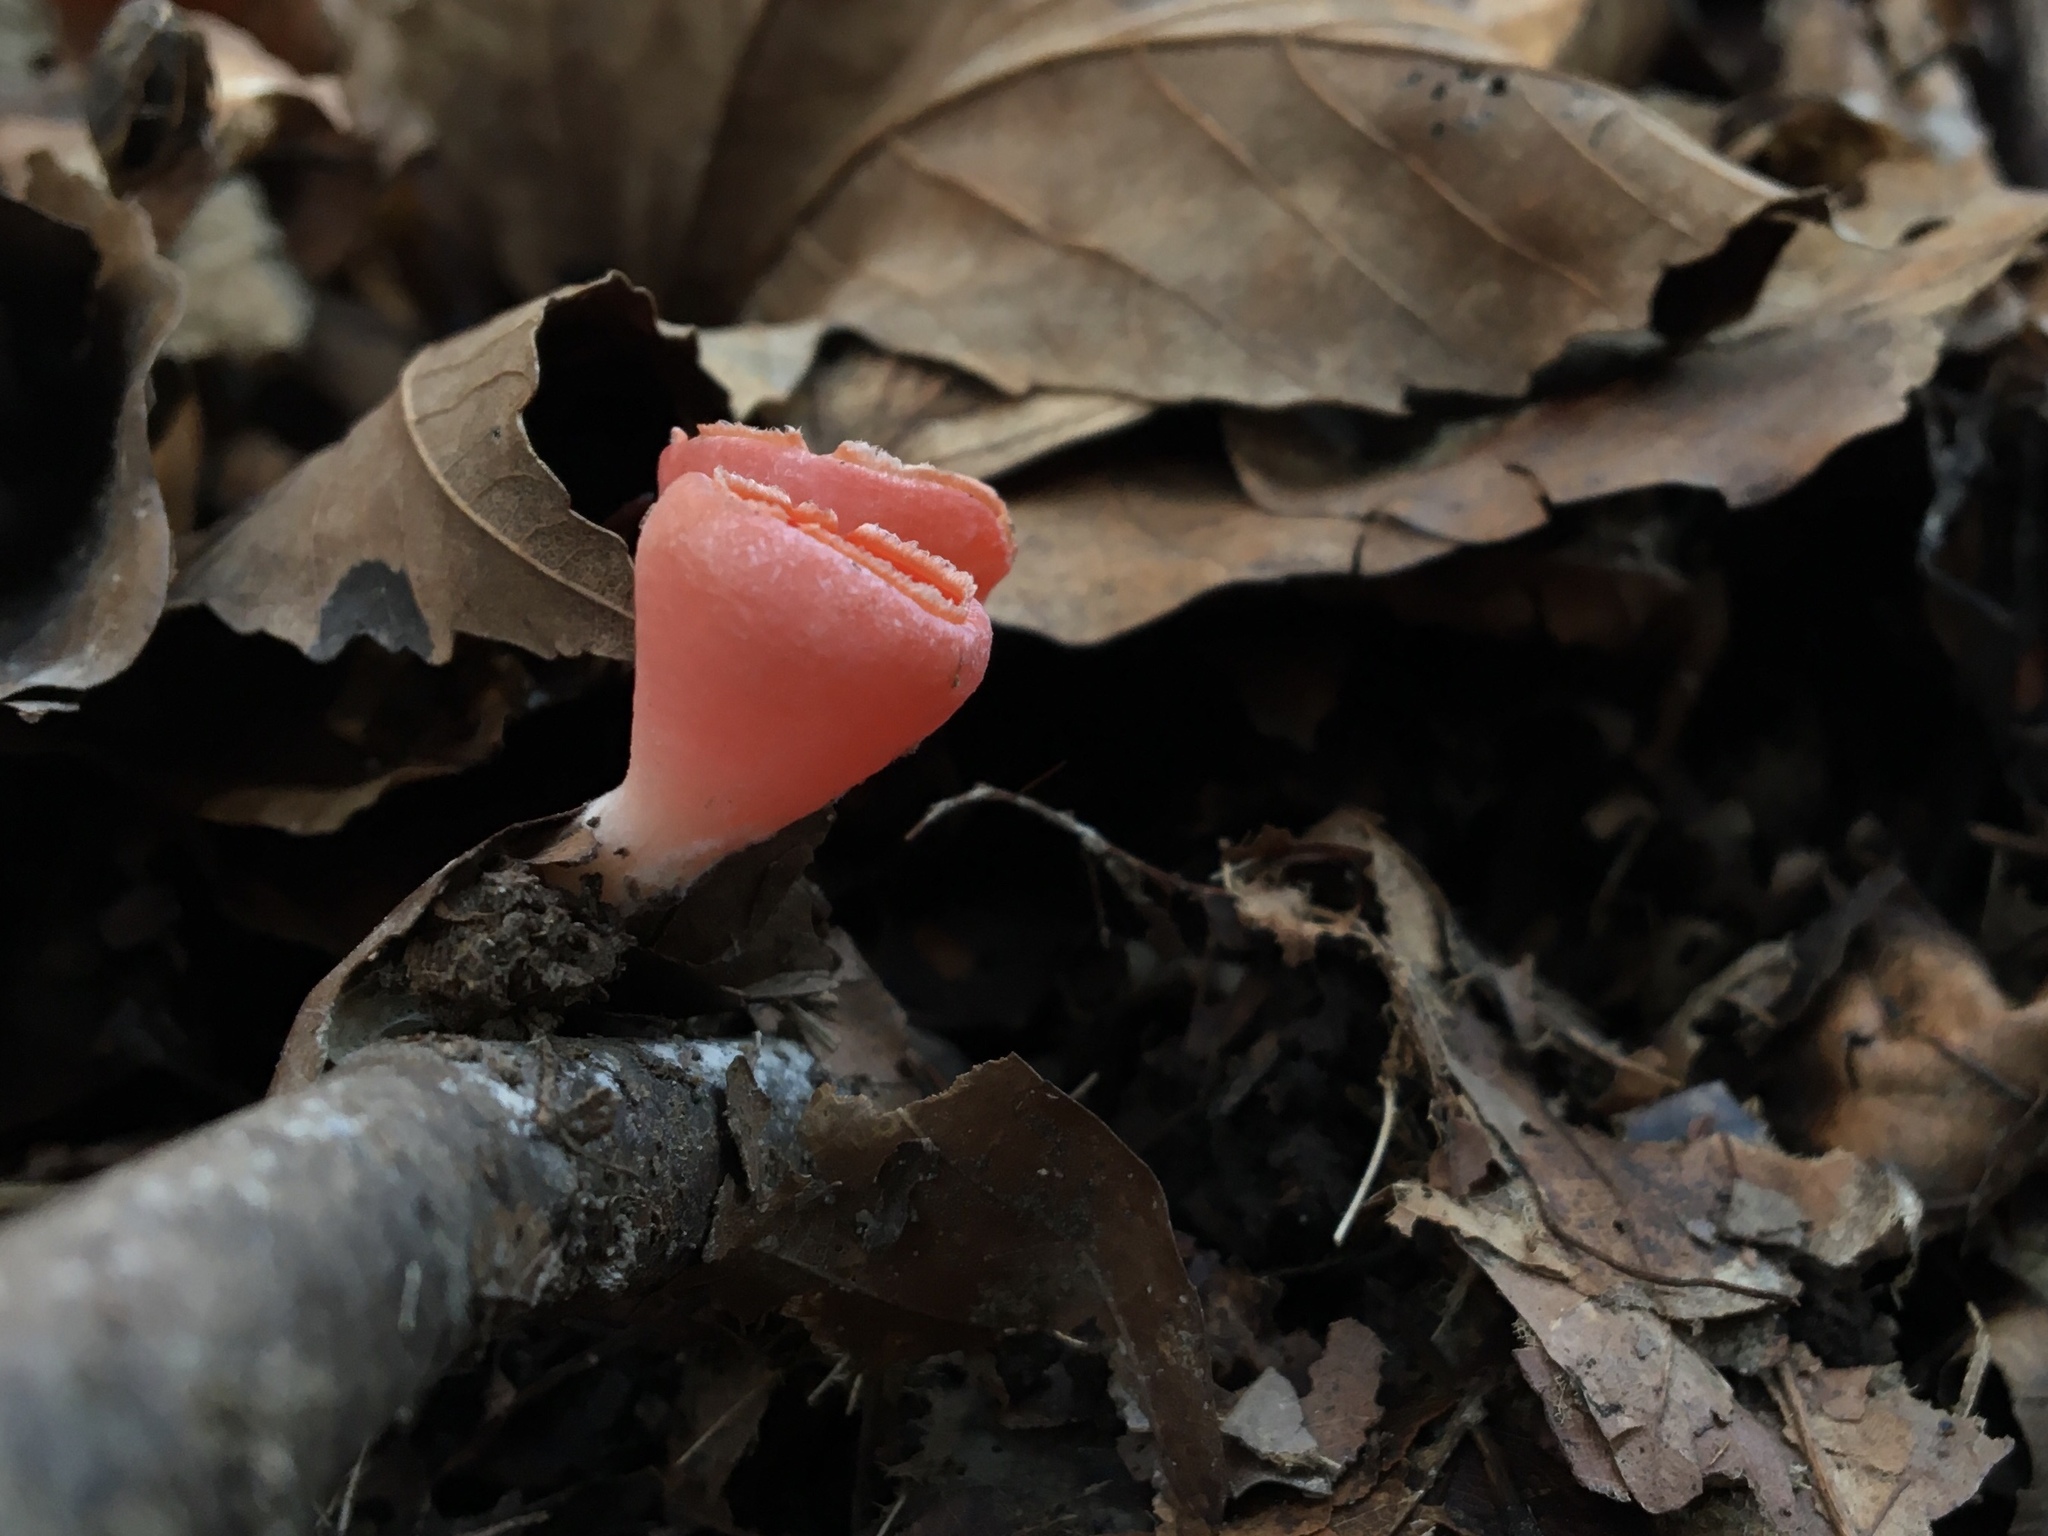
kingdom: Fungi
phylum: Ascomycota
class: Pezizomycetes
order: Pezizales
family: Sarcoscyphaceae
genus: Sarcoscypha
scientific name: Sarcoscypha
